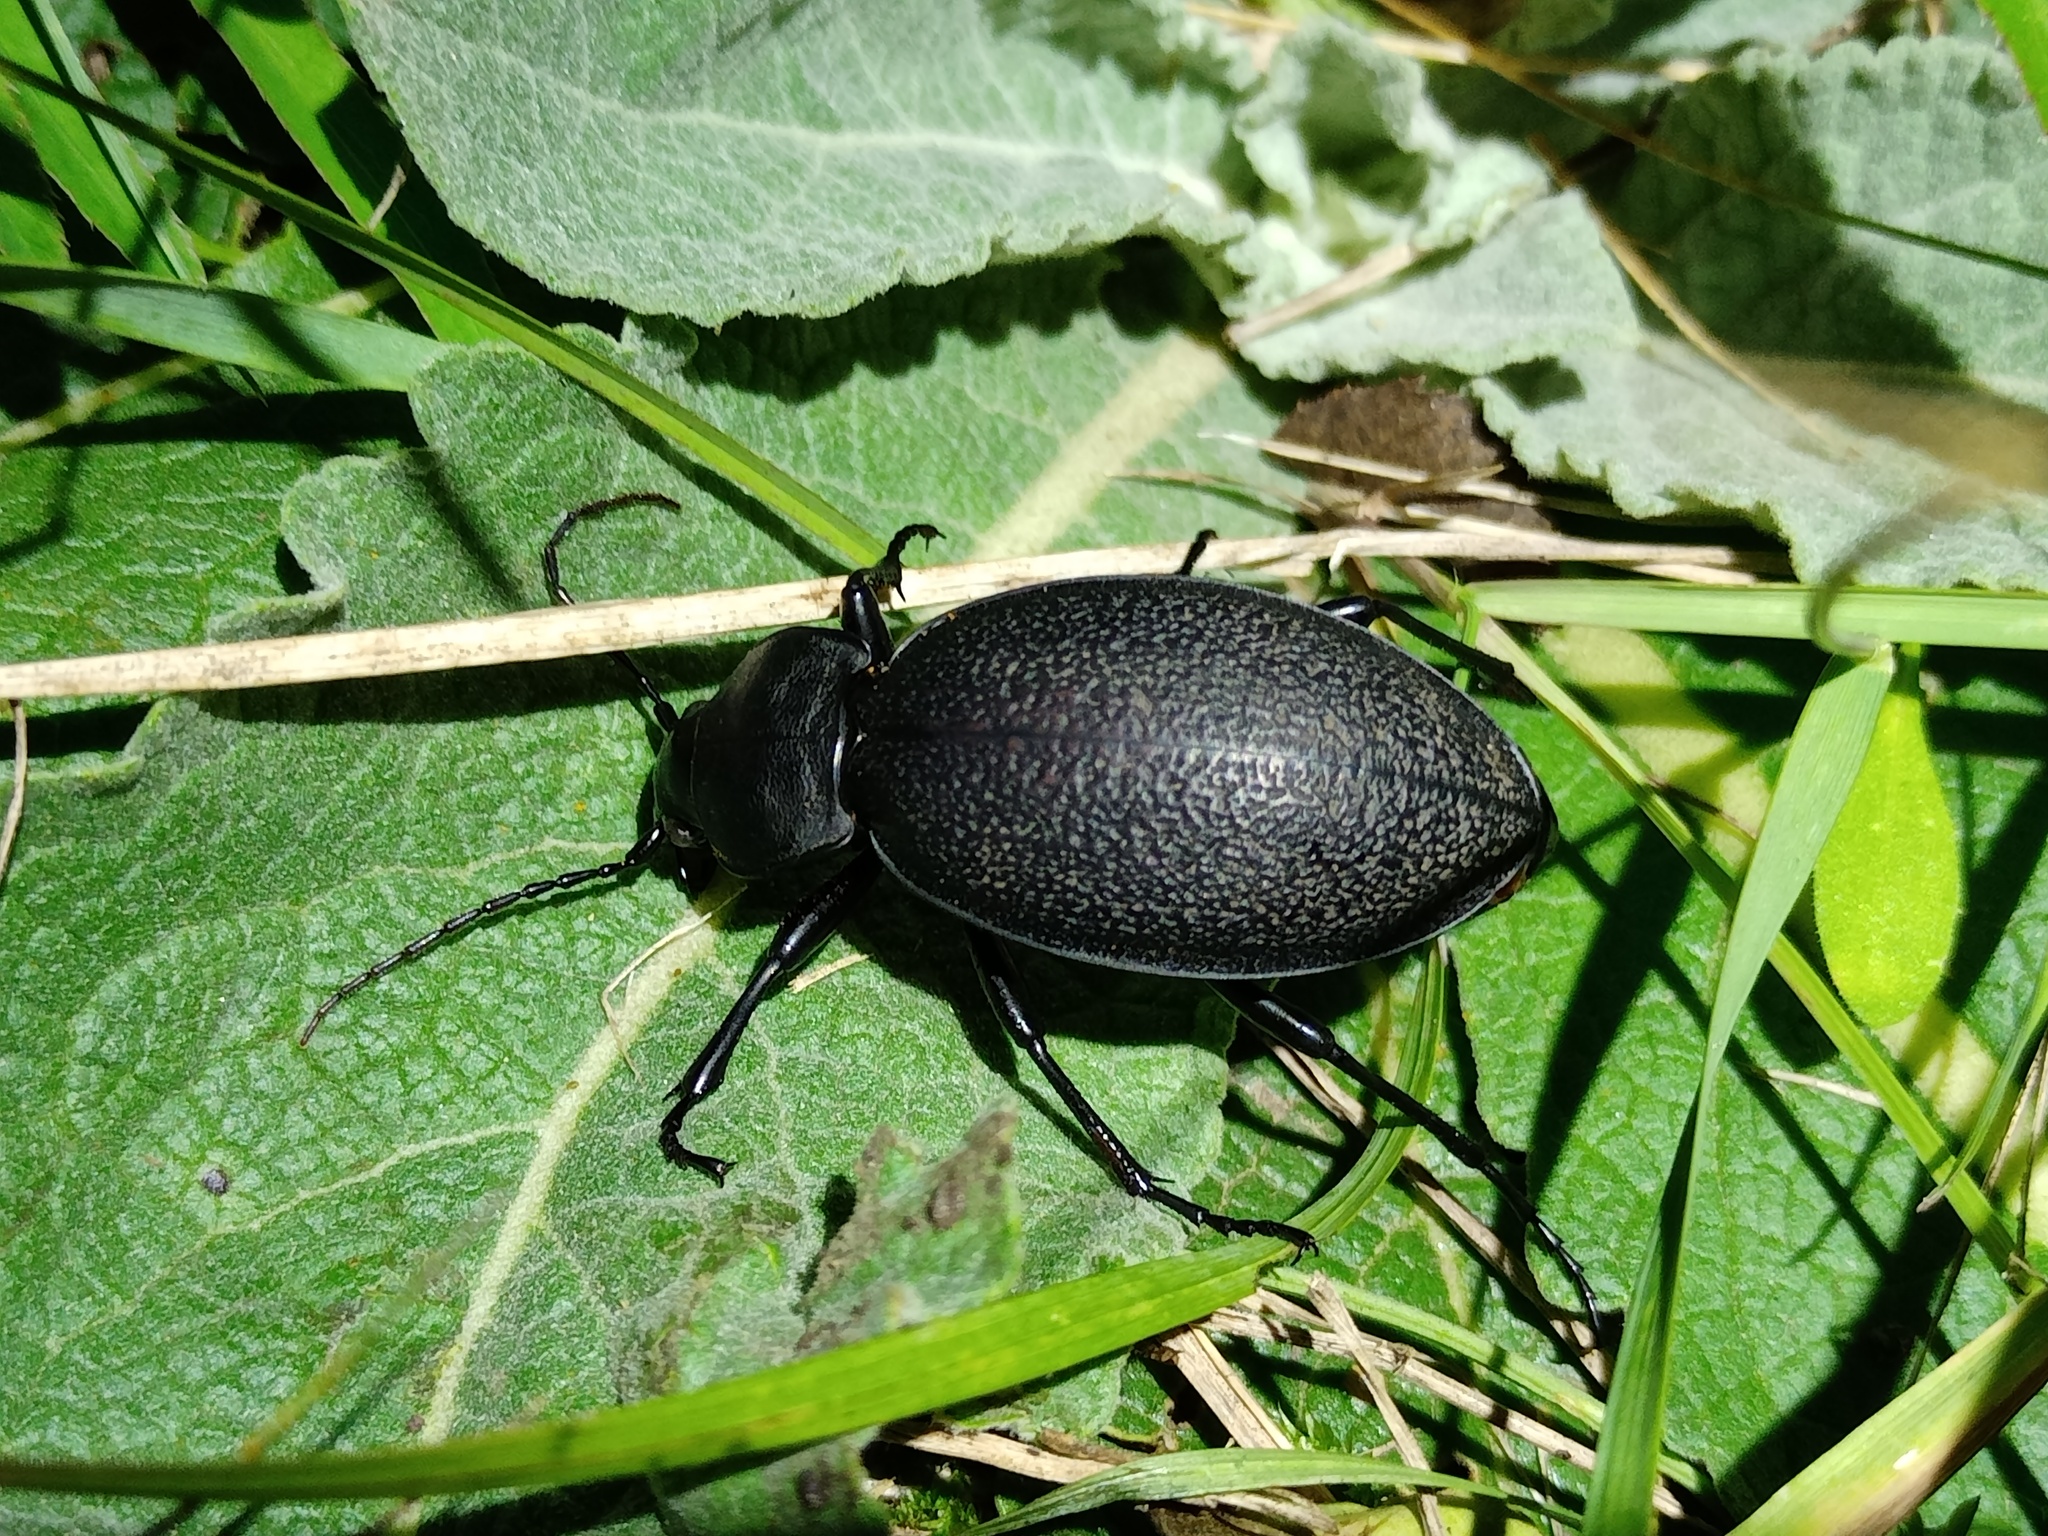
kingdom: Animalia
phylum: Arthropoda
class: Insecta
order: Coleoptera
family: Carabidae
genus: Carabus
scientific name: Carabus coriaceus
